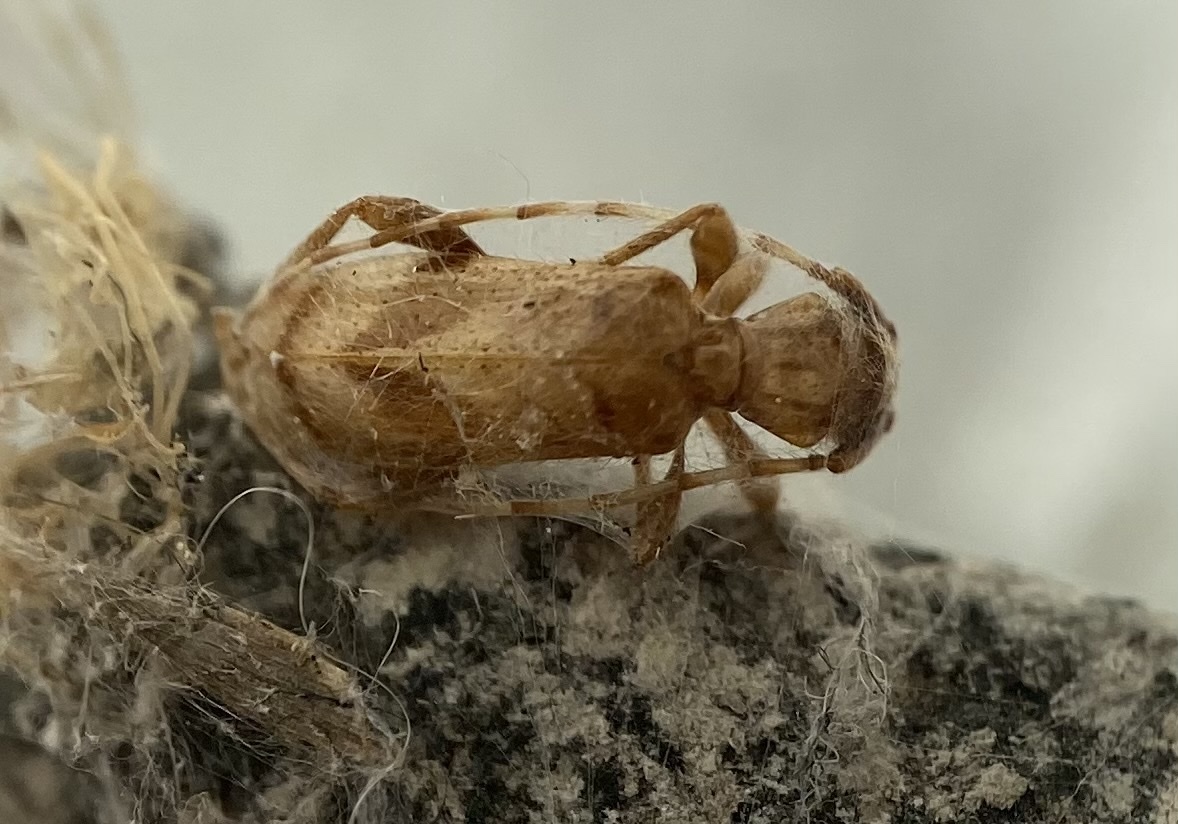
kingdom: Animalia
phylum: Arthropoda
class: Insecta
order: Coleoptera
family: Cerambycidae
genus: Obrium
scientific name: Obrium maculatum
